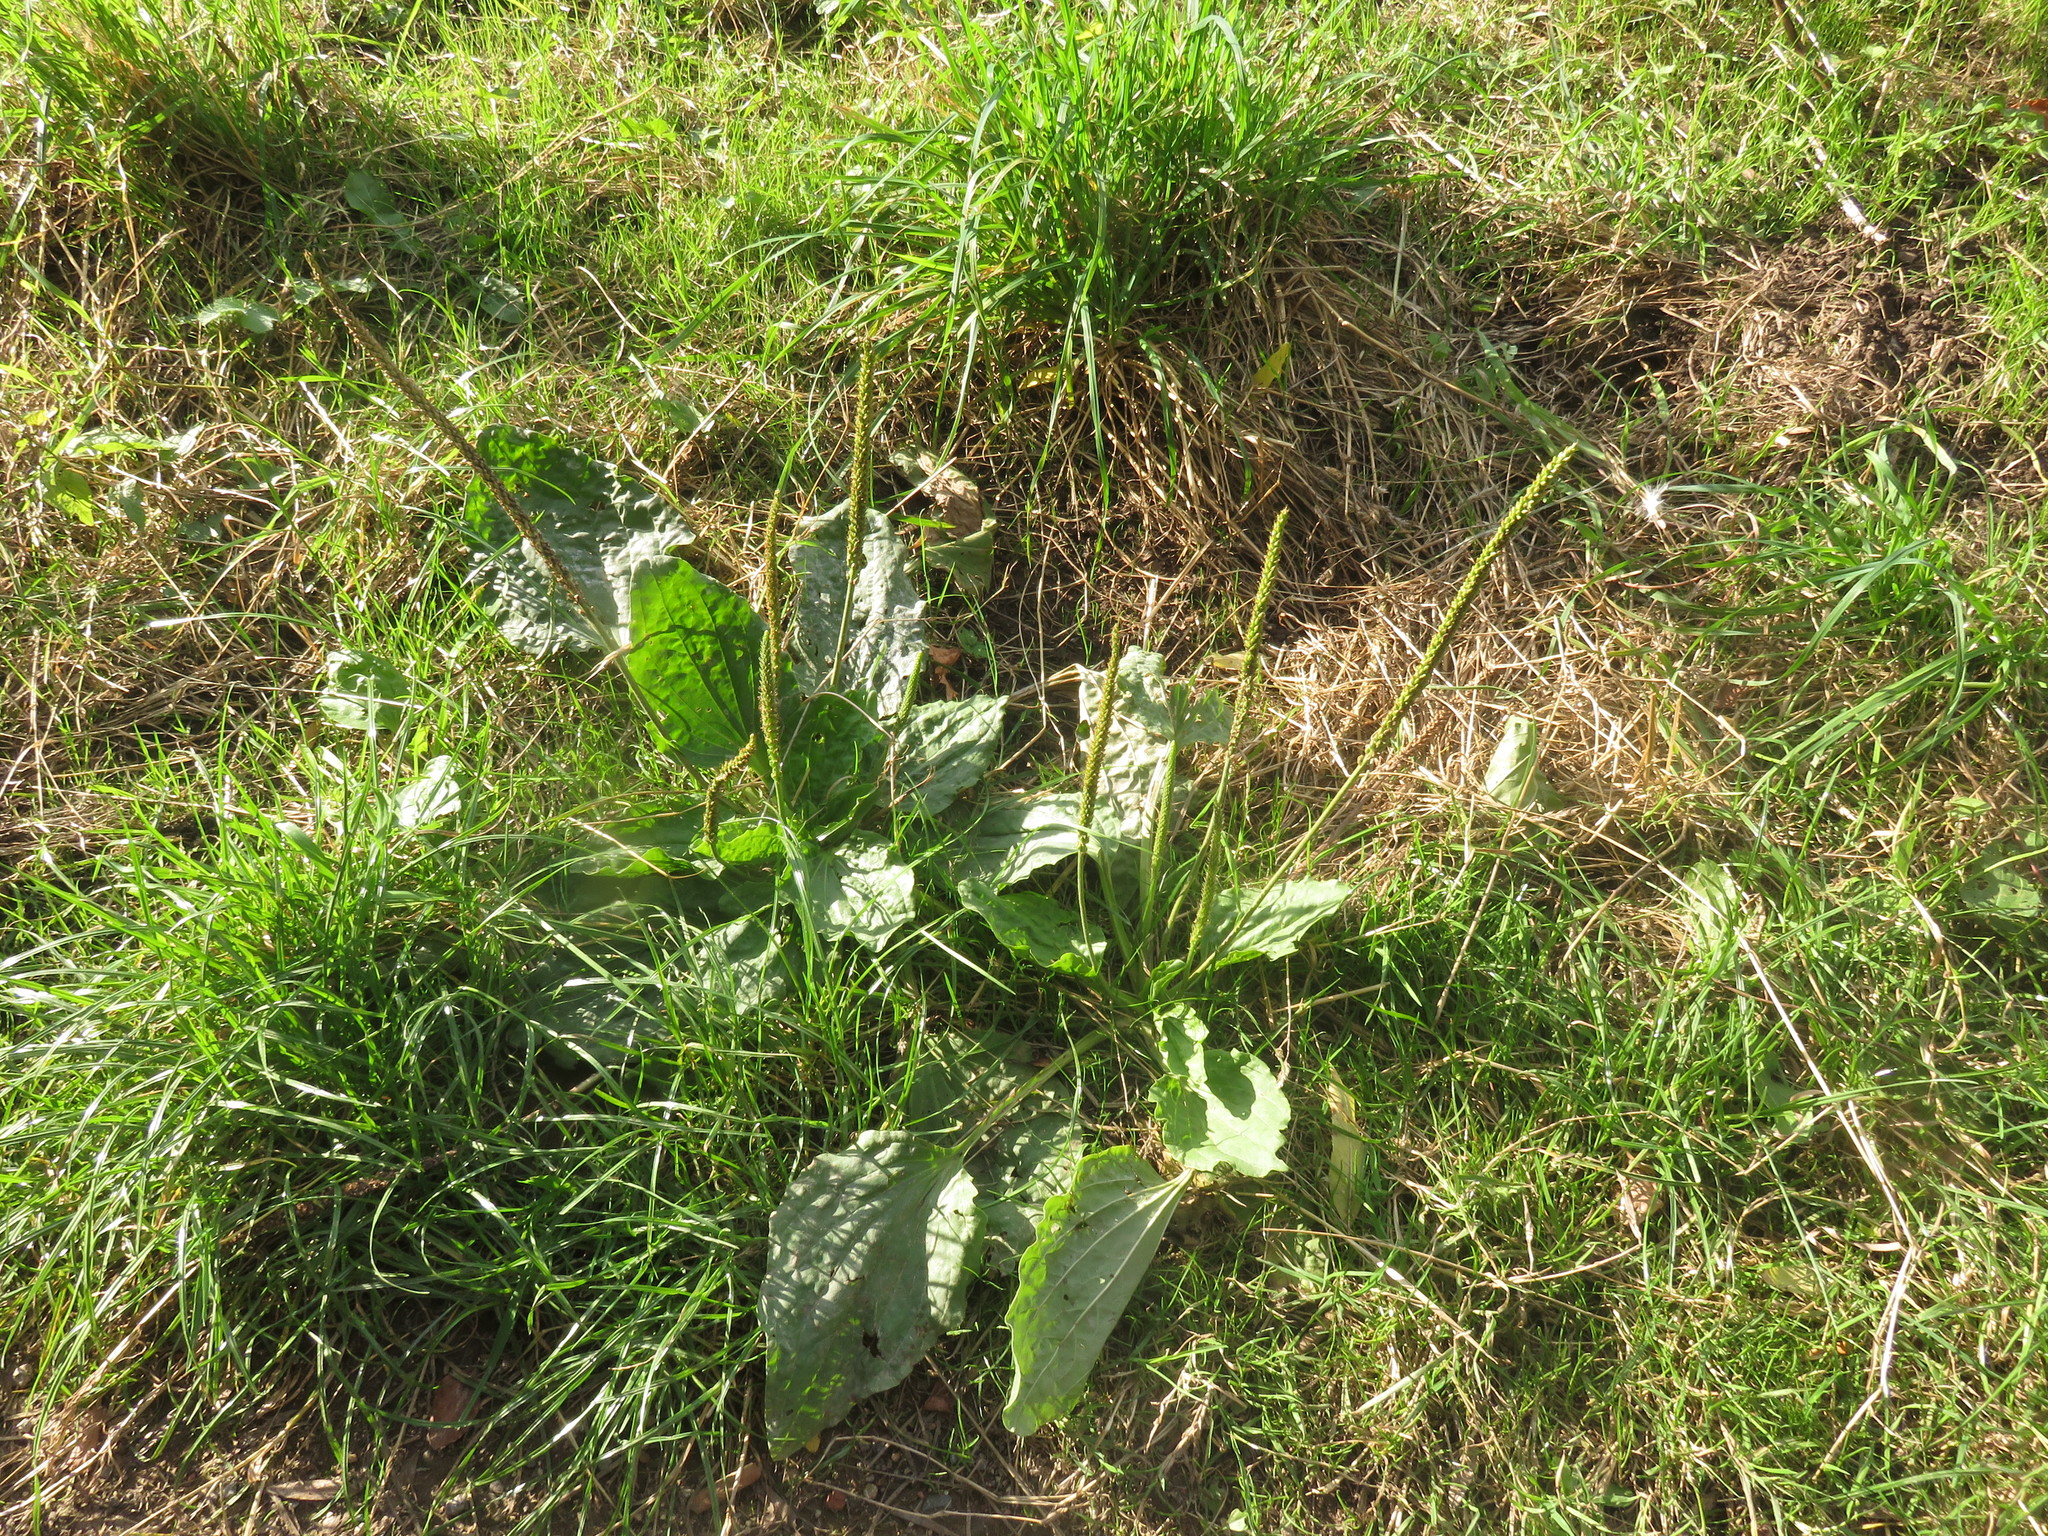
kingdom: Plantae
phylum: Tracheophyta
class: Magnoliopsida
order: Lamiales
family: Plantaginaceae
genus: Plantago
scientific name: Plantago major
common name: Common plantain
